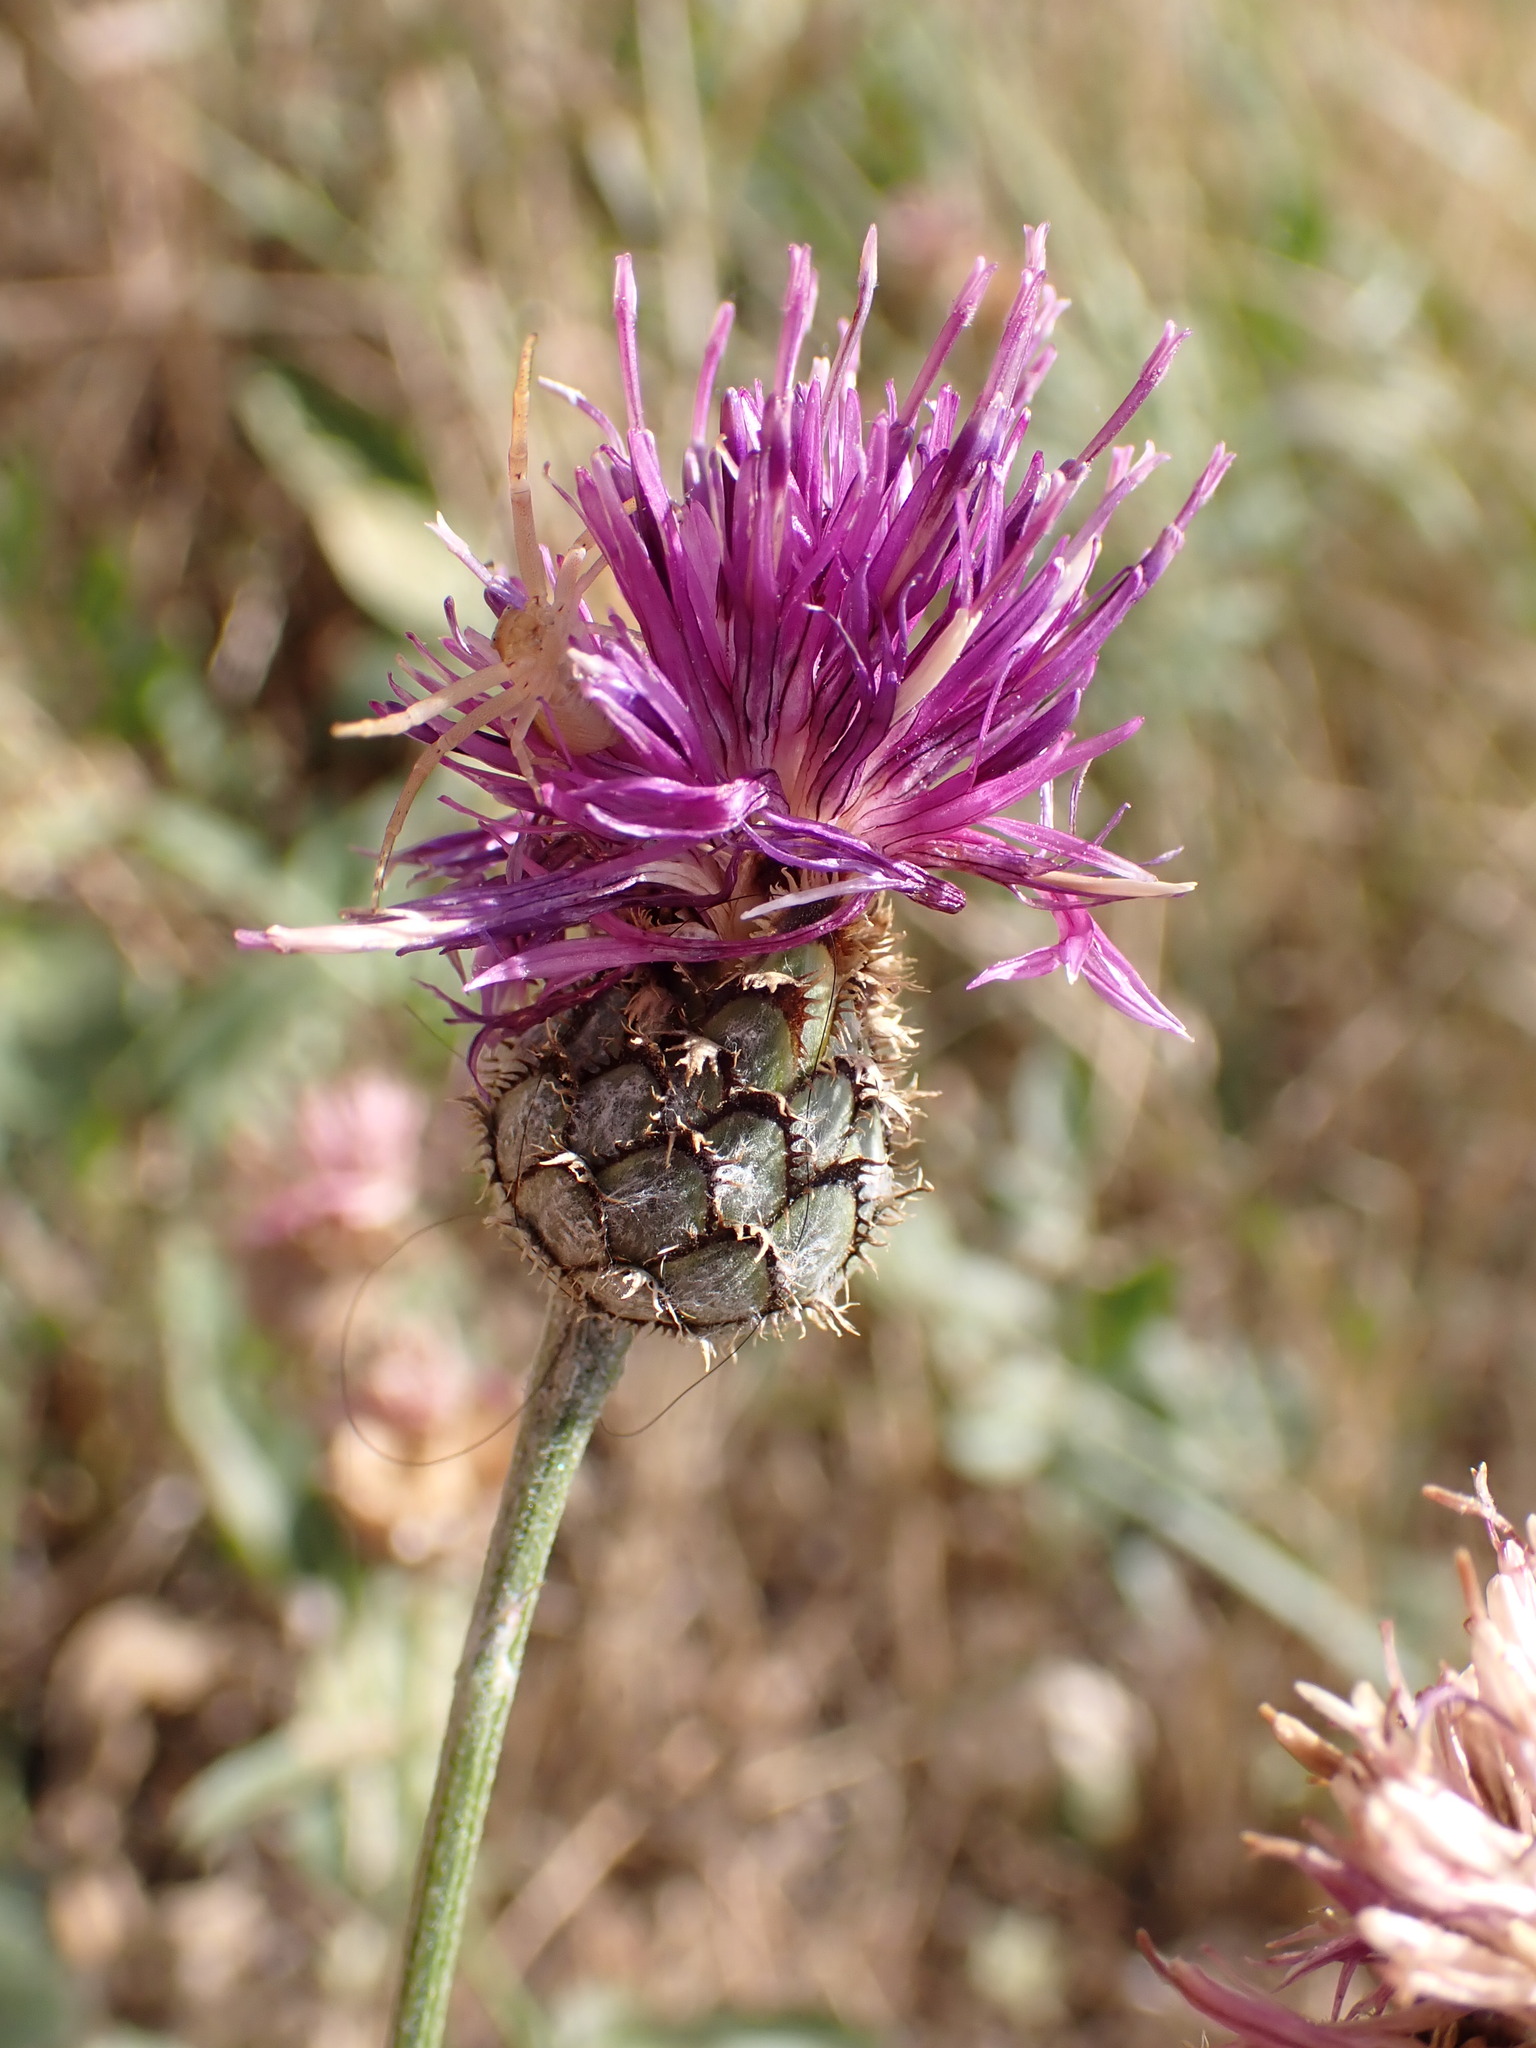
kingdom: Plantae
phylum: Tracheophyta
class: Magnoliopsida
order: Asterales
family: Asteraceae
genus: Centaurea
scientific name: Centaurea scabiosa
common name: Greater knapweed
